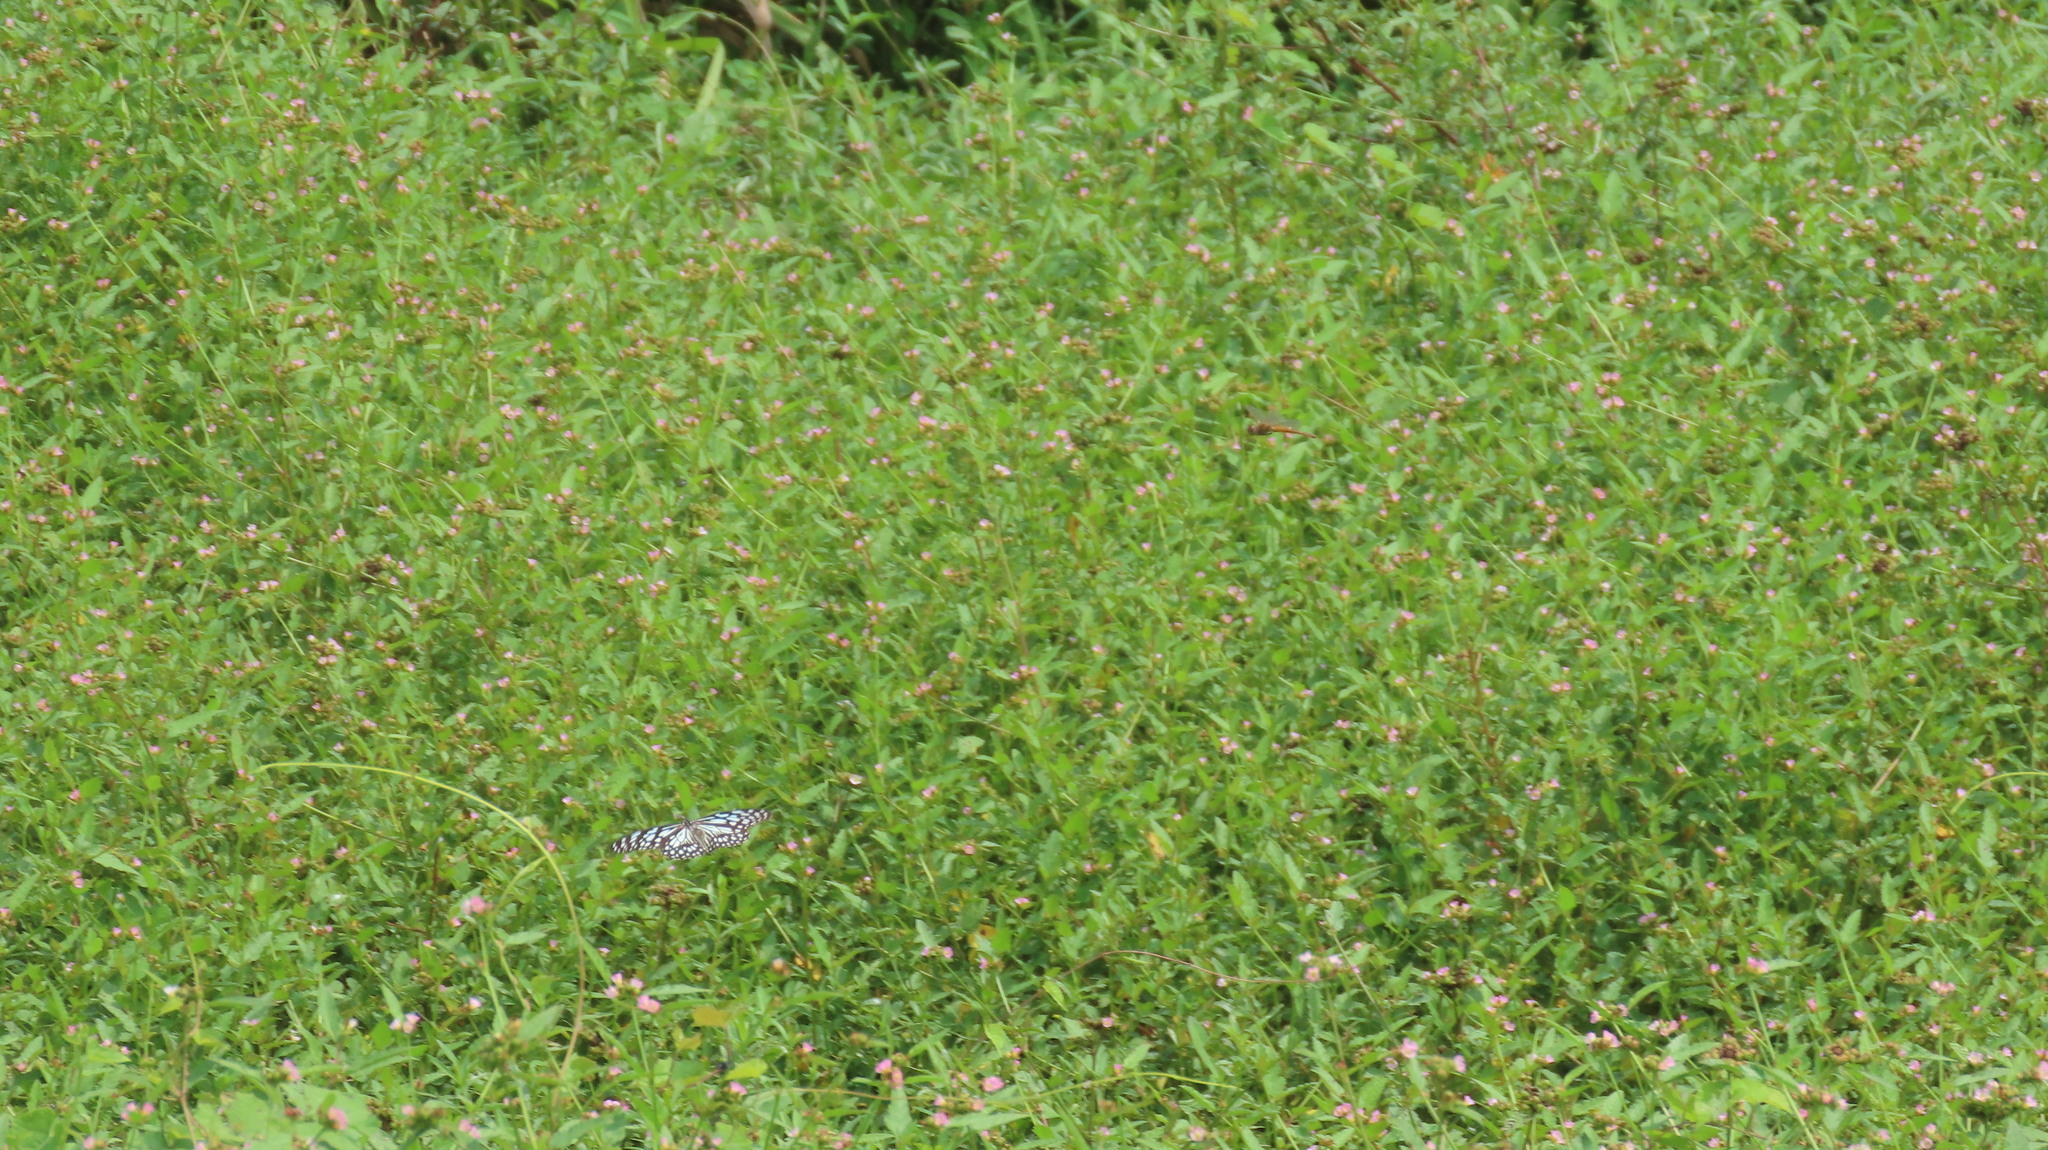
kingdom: Animalia
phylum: Arthropoda
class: Insecta
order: Lepidoptera
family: Nymphalidae
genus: Tirumala
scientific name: Tirumala limniace
